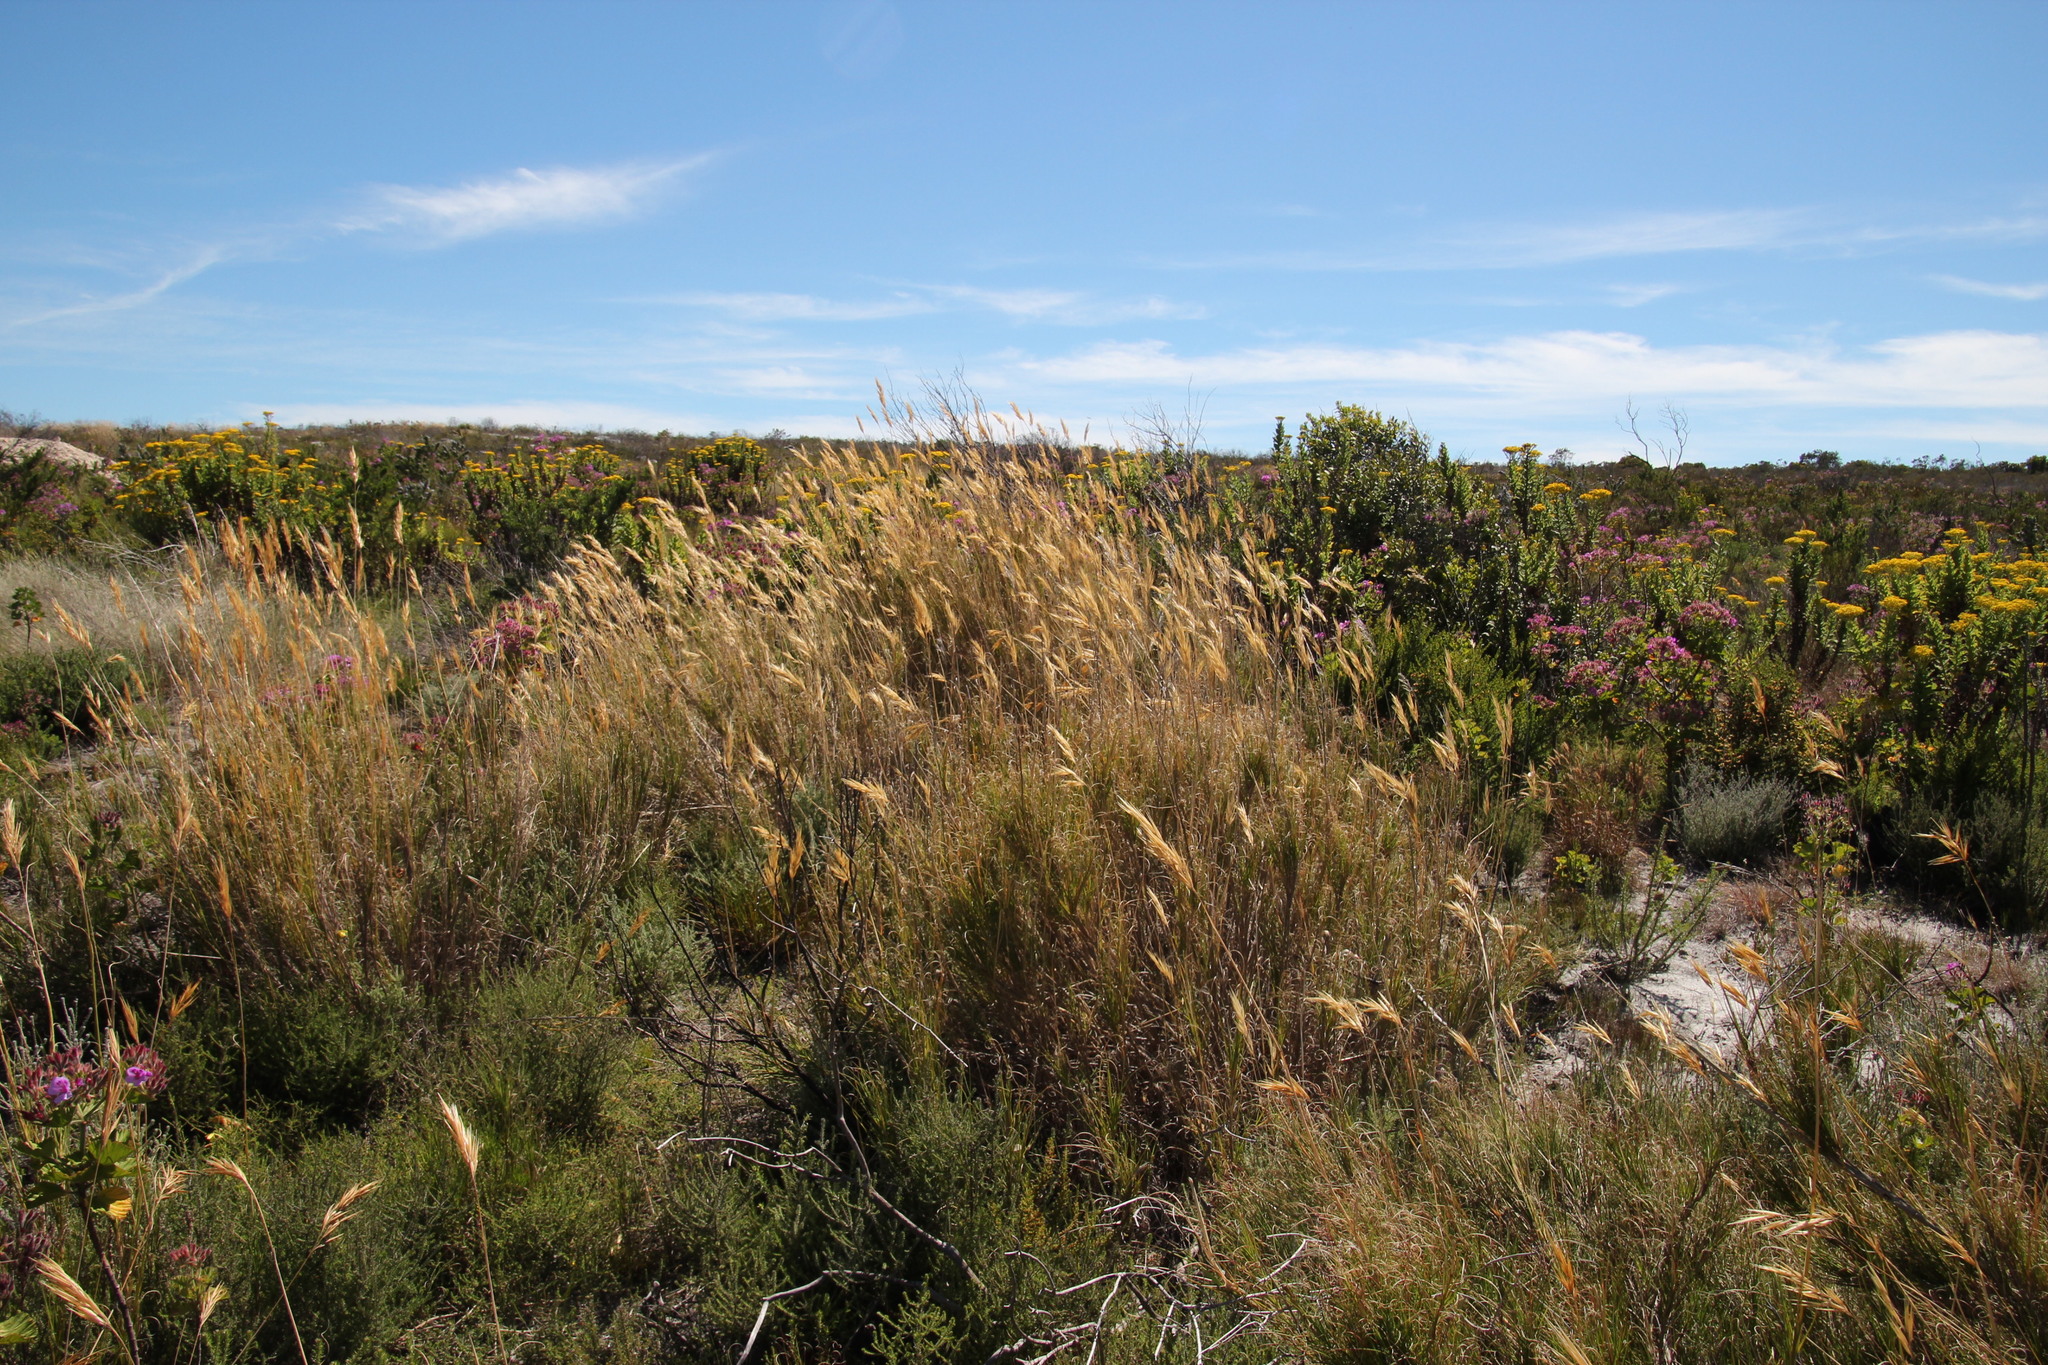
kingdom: Plantae
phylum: Tracheophyta
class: Liliopsida
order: Poales
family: Poaceae
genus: Pseudopentameris
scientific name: Pseudopentameris macrantha
